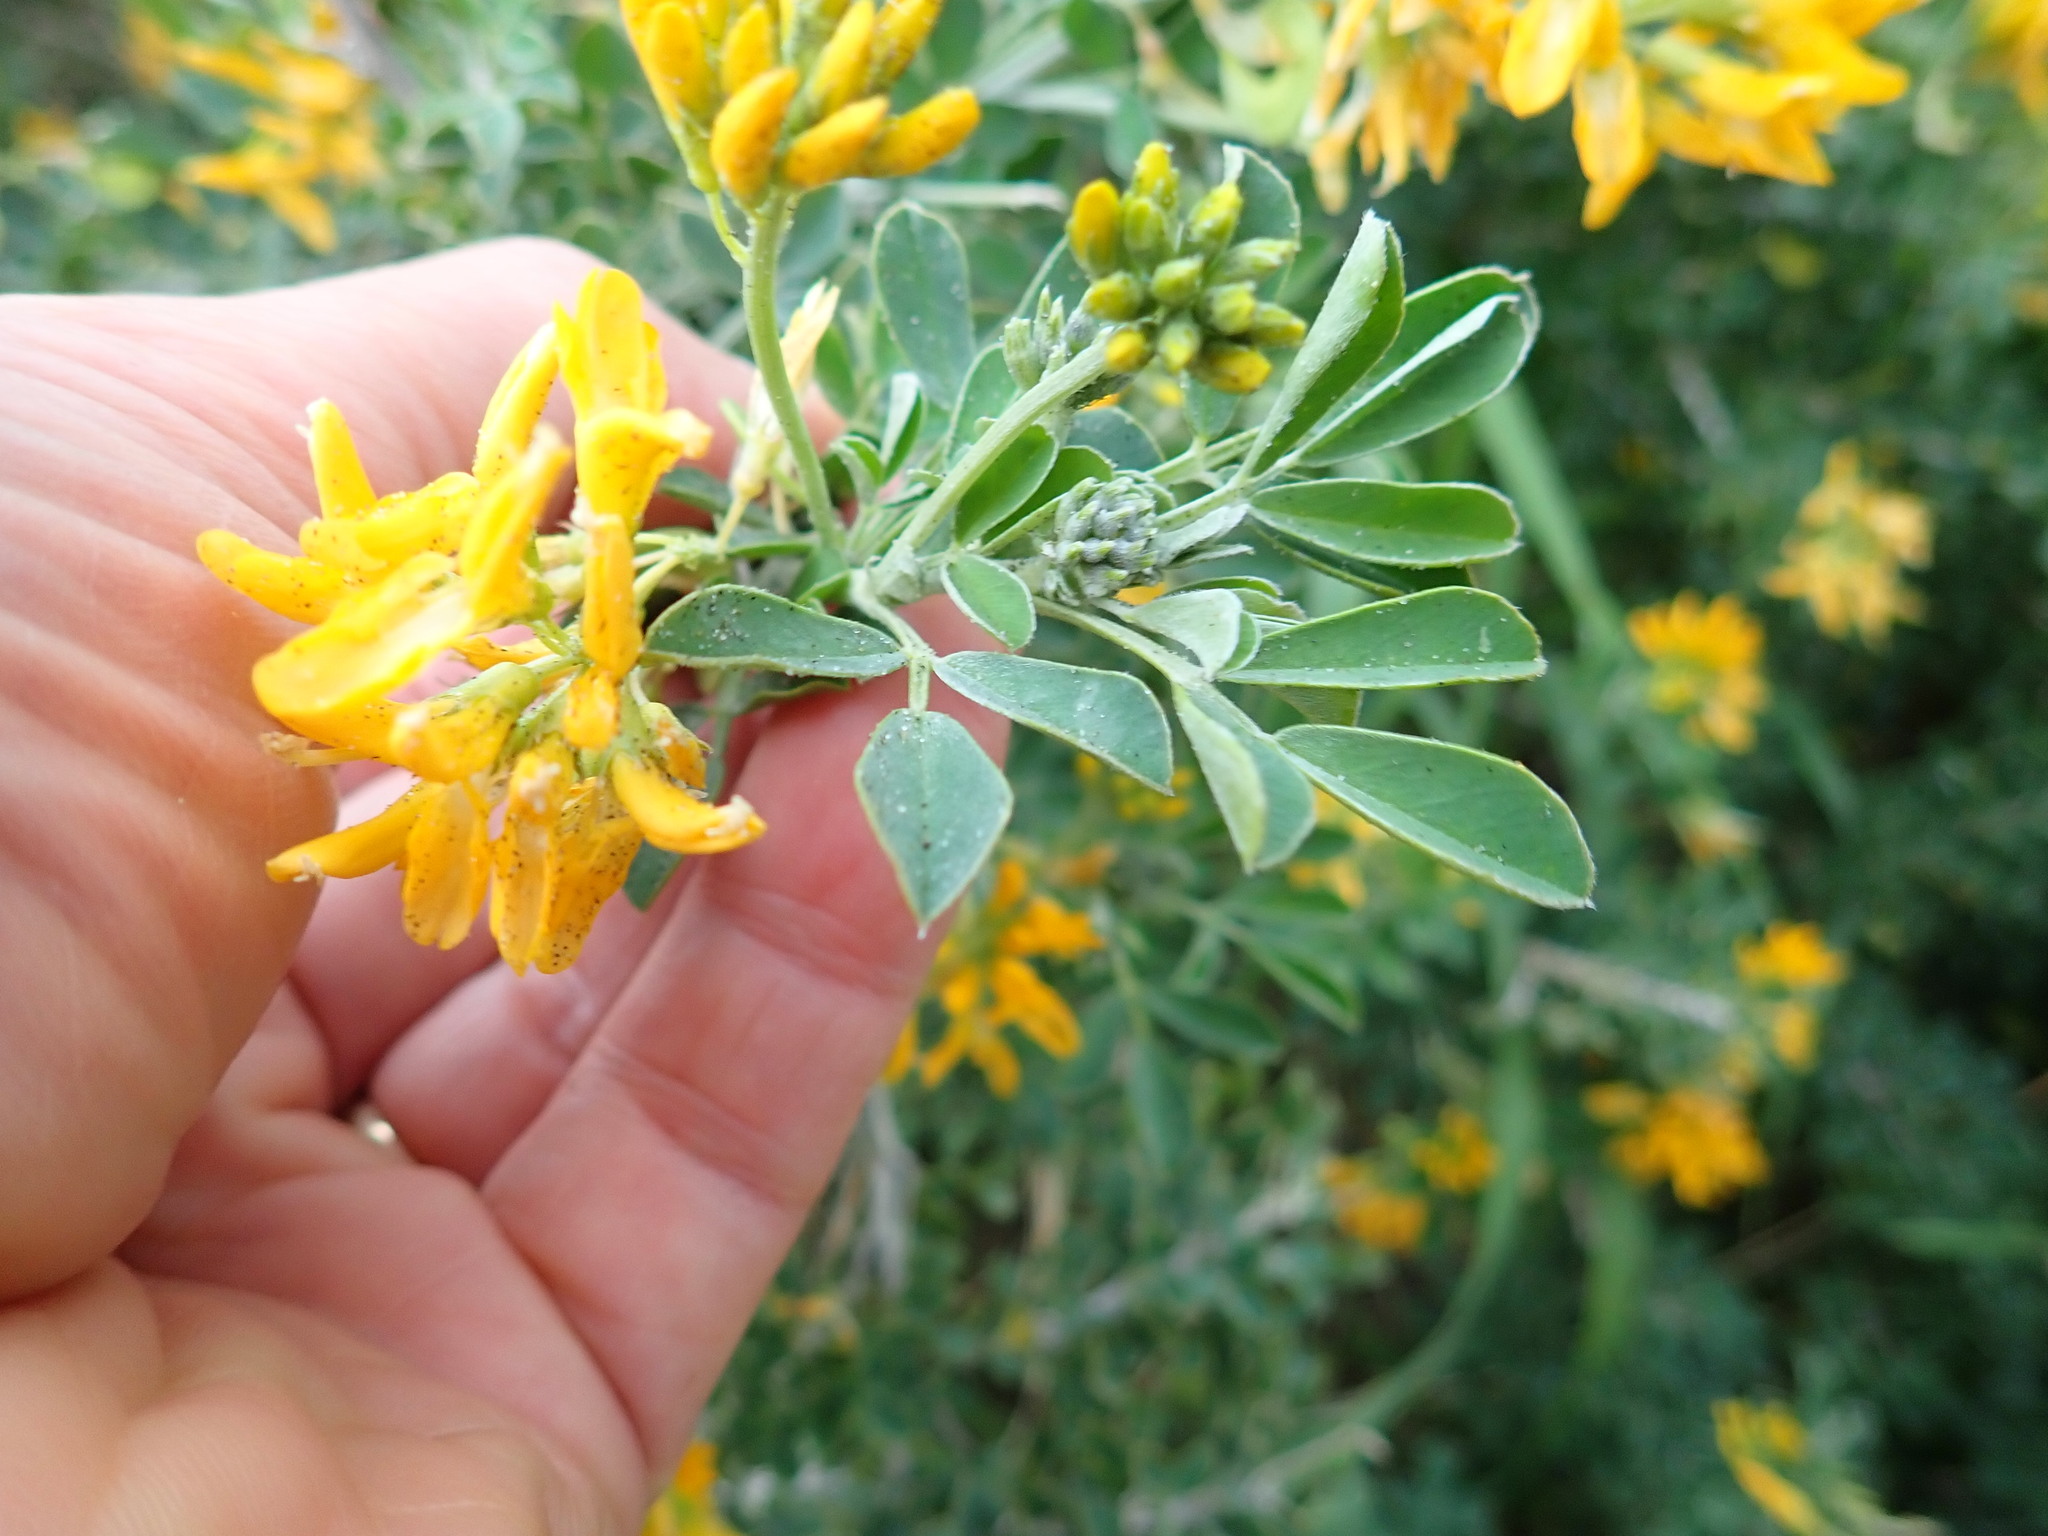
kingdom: Plantae
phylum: Tracheophyta
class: Magnoliopsida
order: Fabales
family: Fabaceae
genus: Genista
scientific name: Genista monspessulana
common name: Montpellier broom
